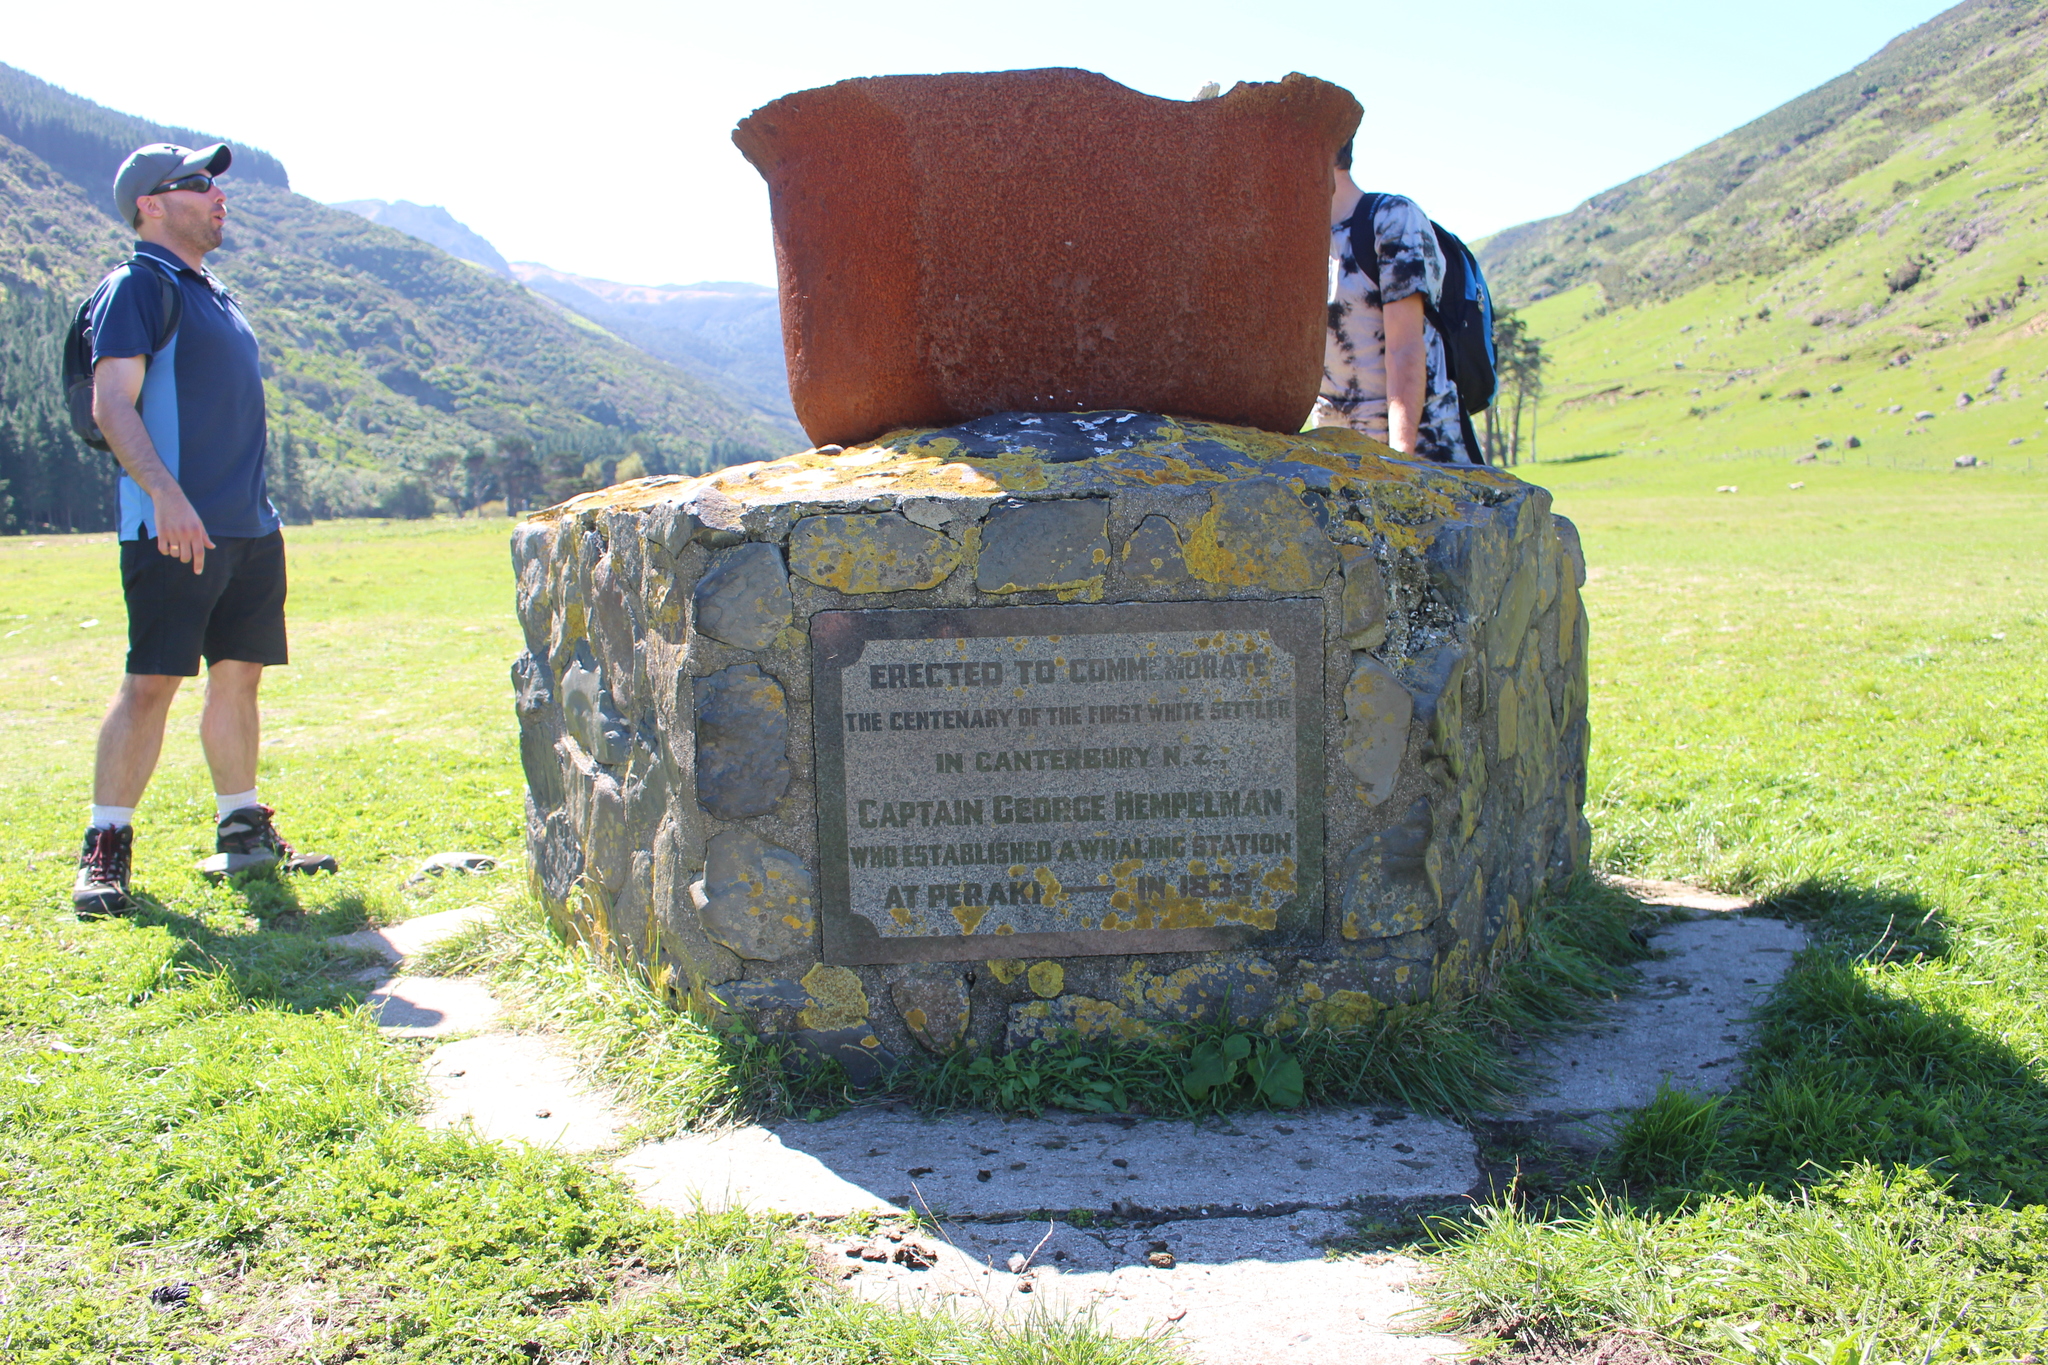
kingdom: Fungi
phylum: Ascomycota
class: Lecanoromycetes
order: Teloschistales
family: Teloschistaceae
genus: Dufourea
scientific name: Dufourea ligulata
